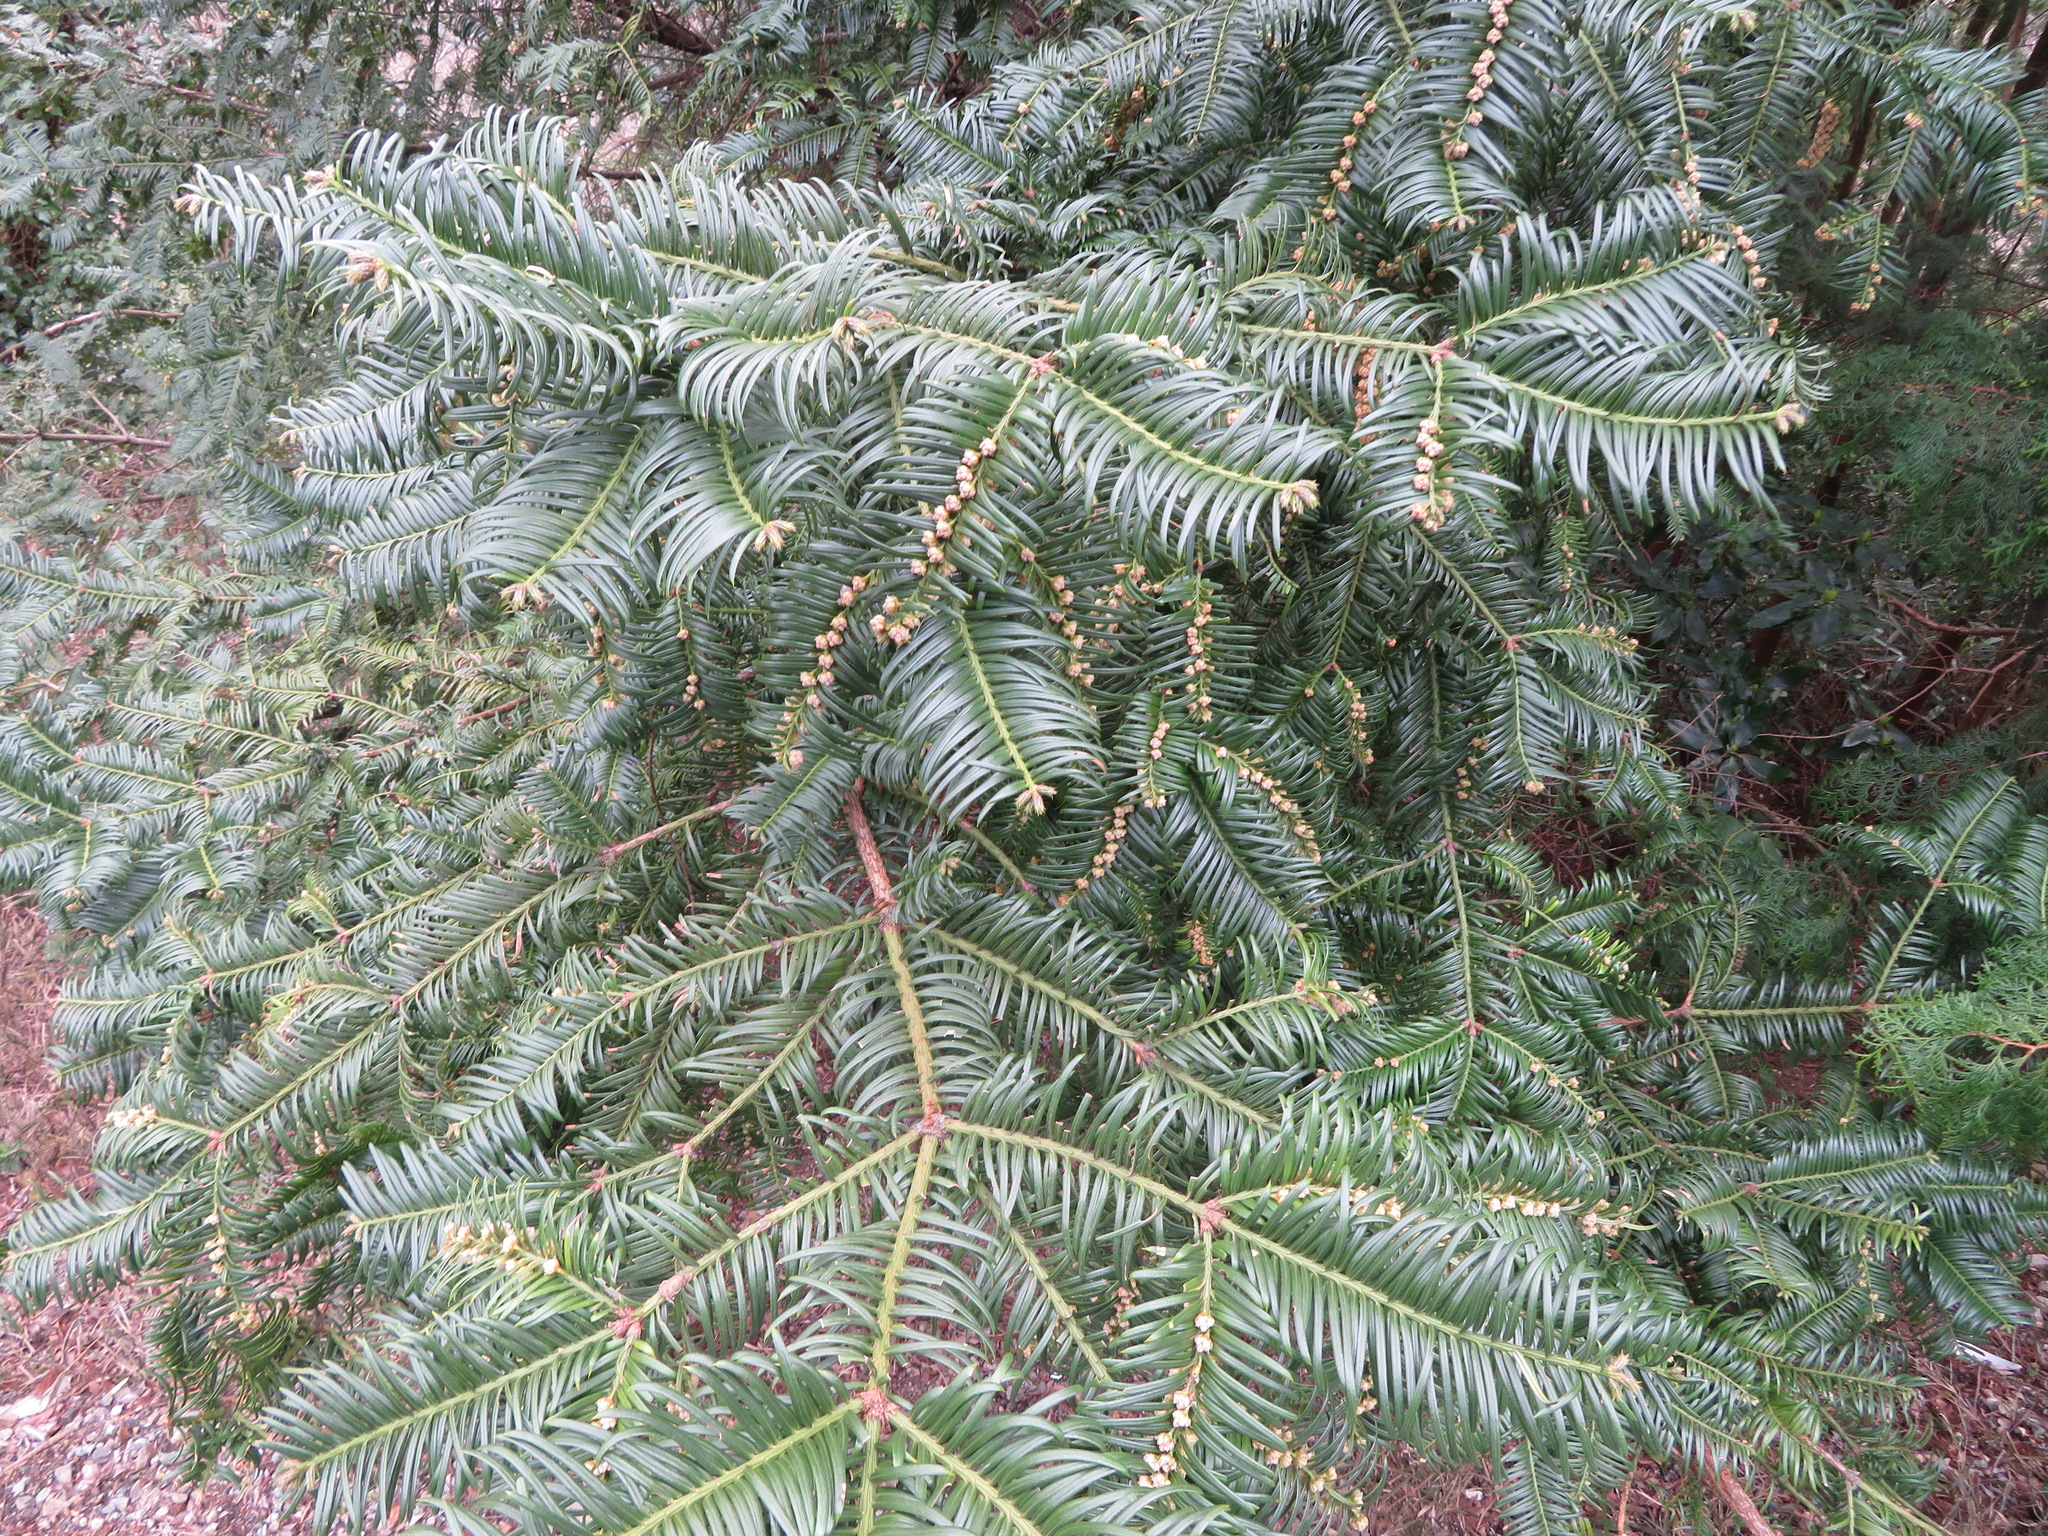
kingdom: Plantae
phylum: Tracheophyta
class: Pinopsida
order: Pinales
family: Cephalotaxaceae
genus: Cephalotaxus
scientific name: Cephalotaxus harringtonia
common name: Japanese plum-yew
